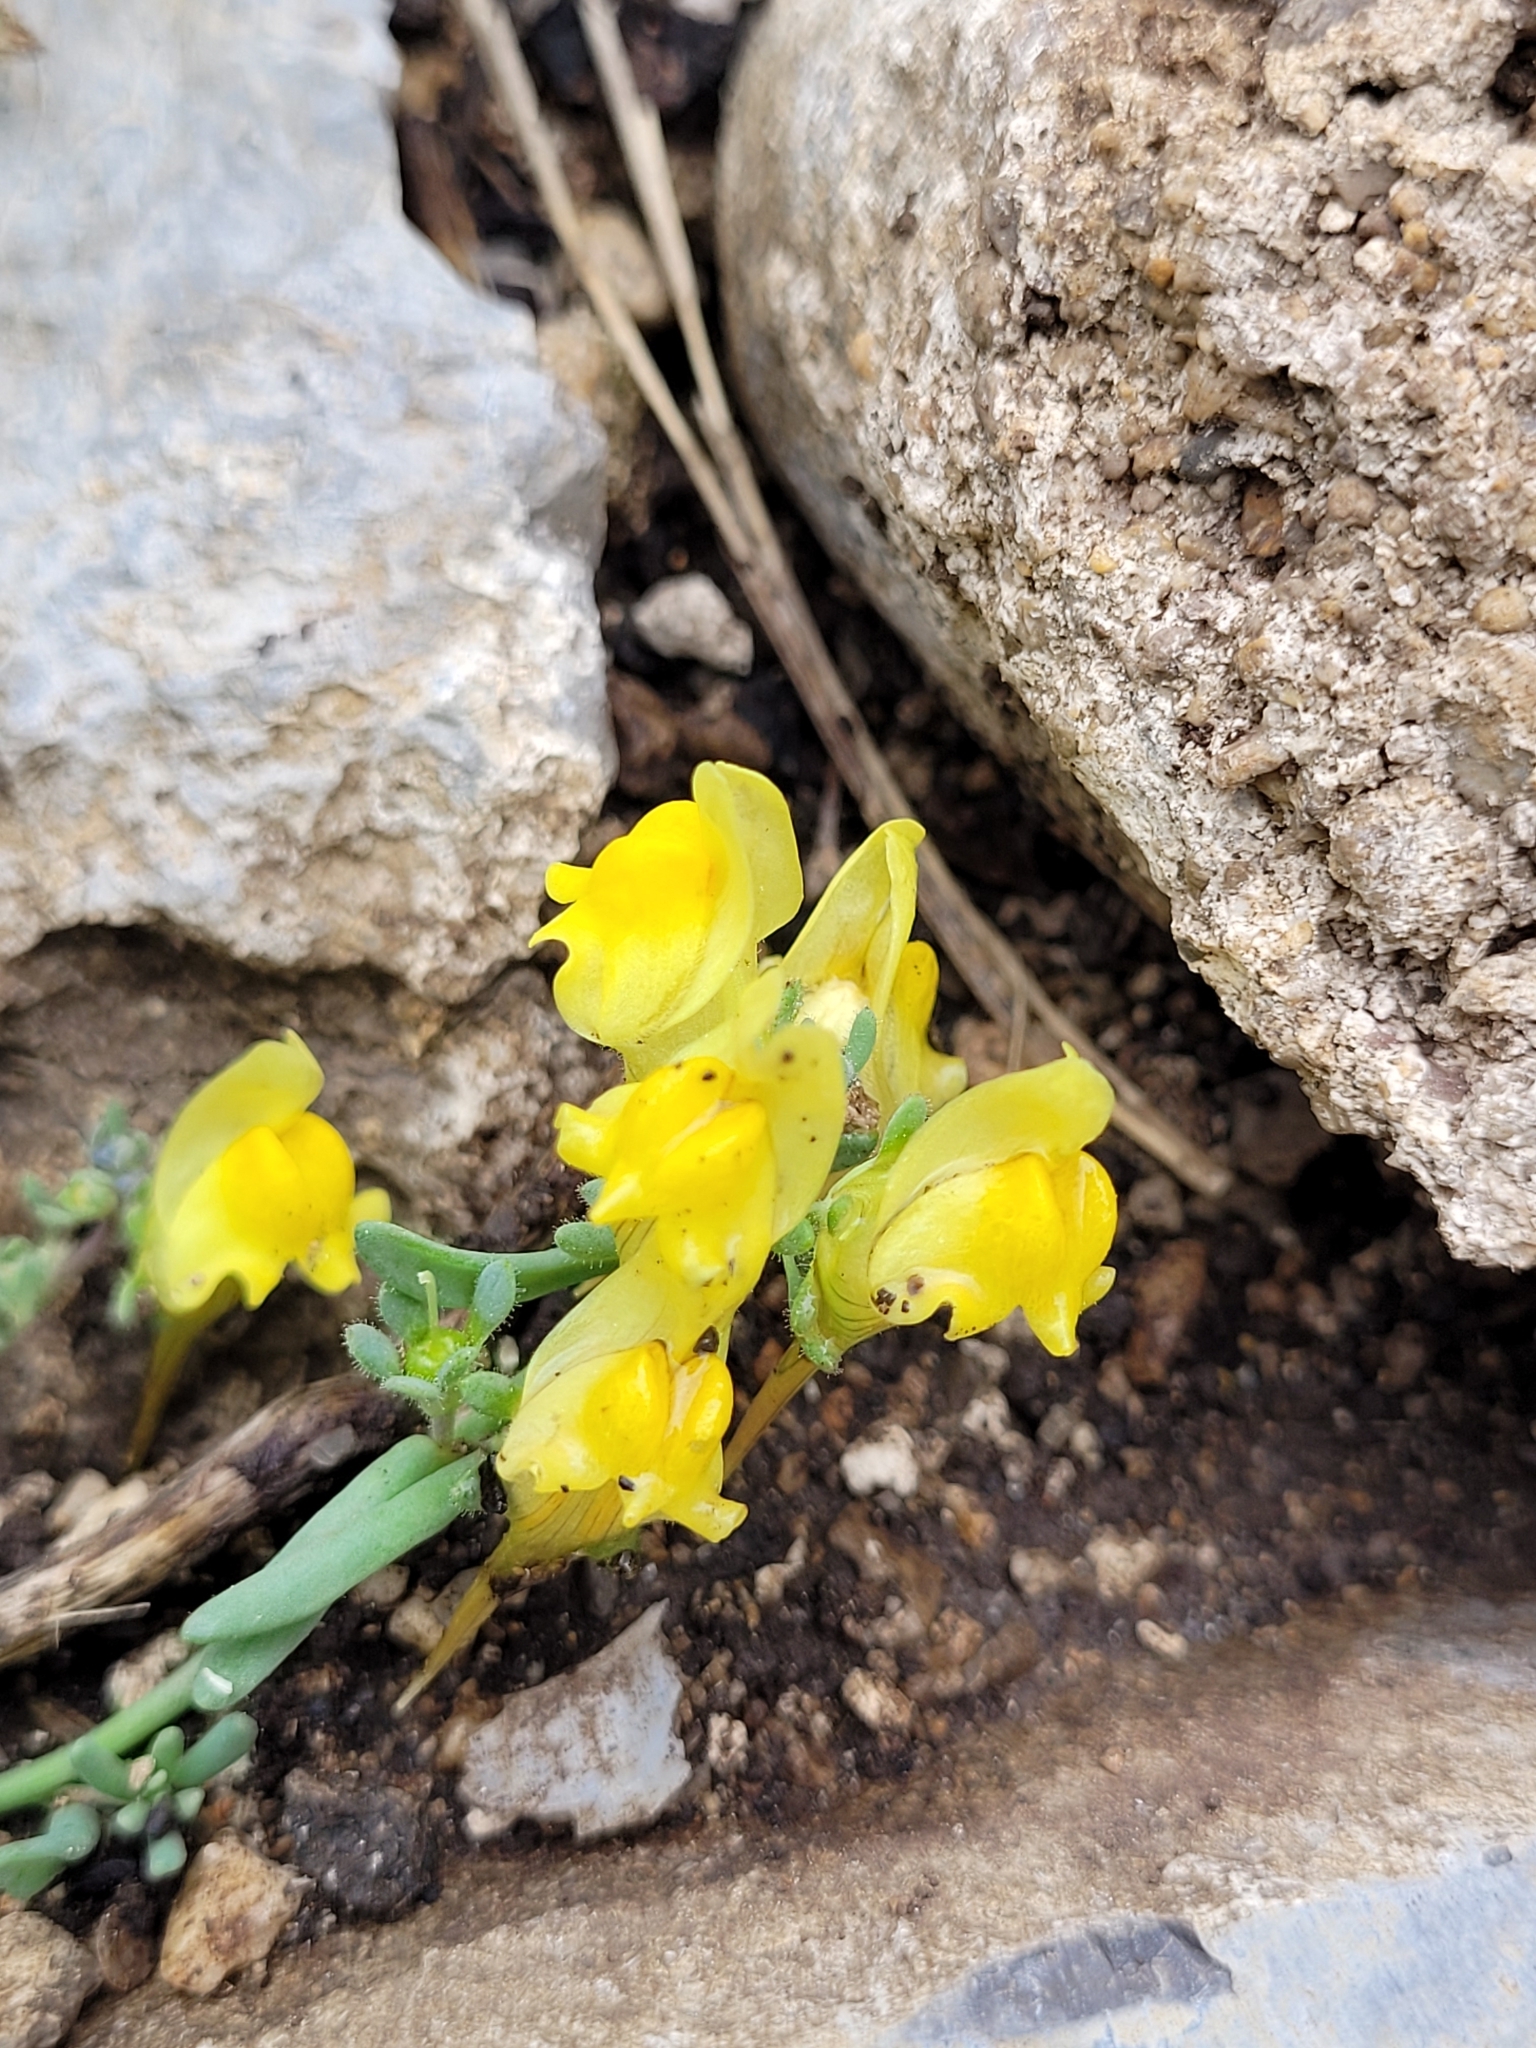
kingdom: Plantae
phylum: Tracheophyta
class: Magnoliopsida
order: Lamiales
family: Plantaginaceae
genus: Linaria
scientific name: Linaria supina
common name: Prostrate toadflax
